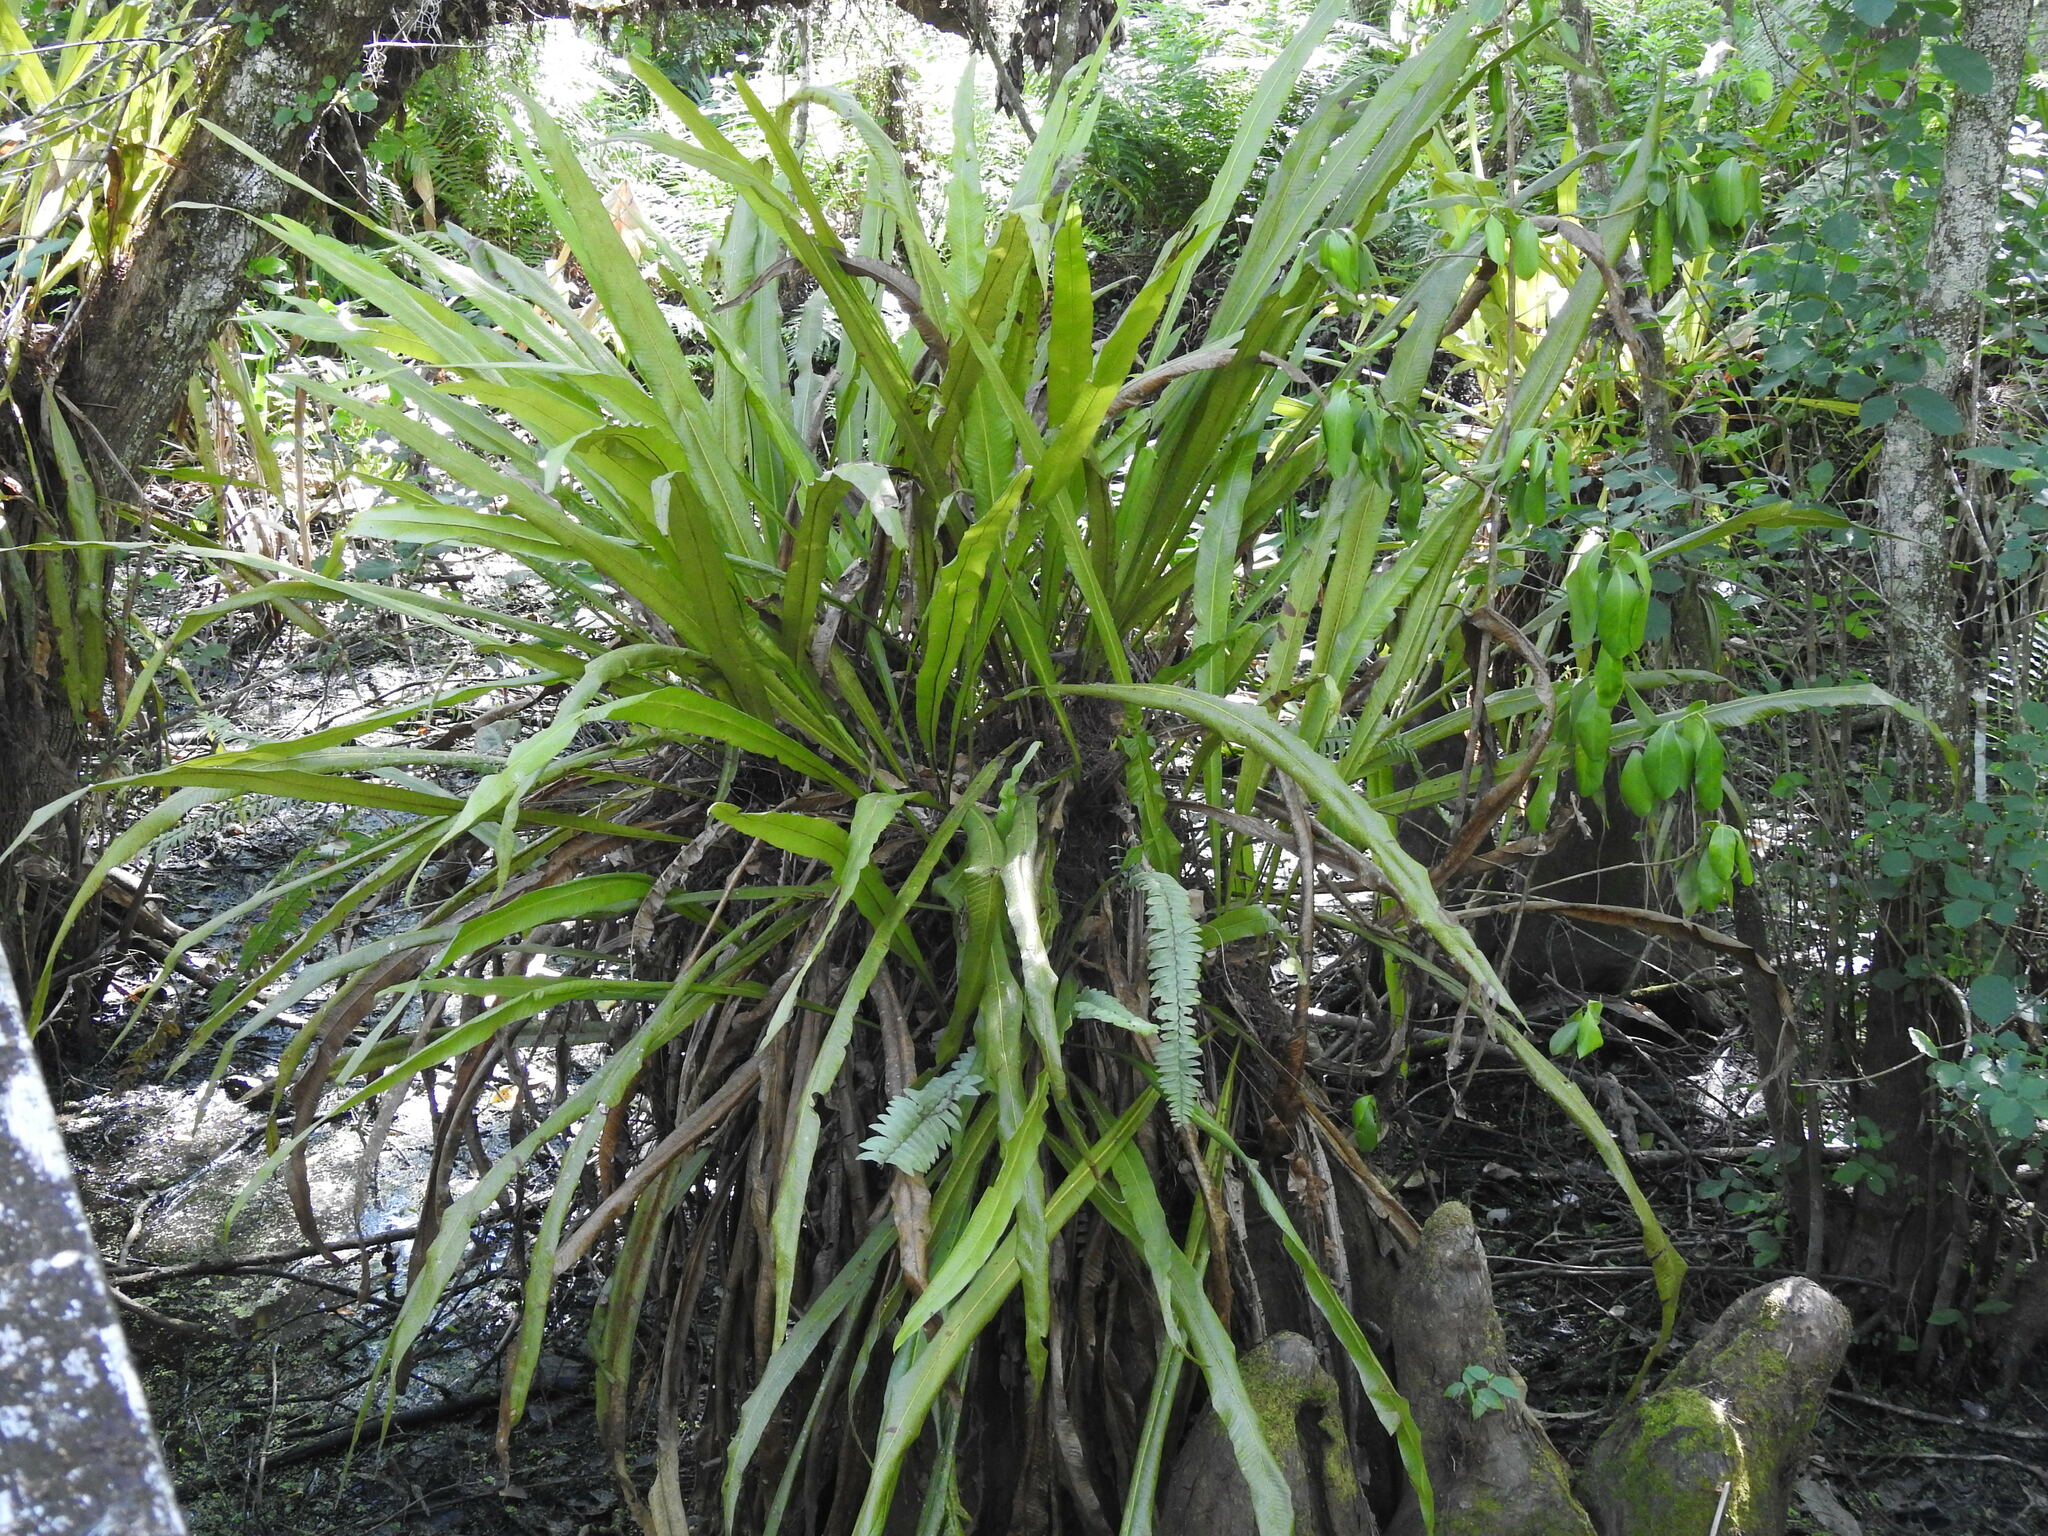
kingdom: Plantae
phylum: Tracheophyta
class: Polypodiopsida
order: Polypodiales
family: Polypodiaceae
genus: Campyloneurum
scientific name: Campyloneurum phyllitidis
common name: Cow-tongue fern
